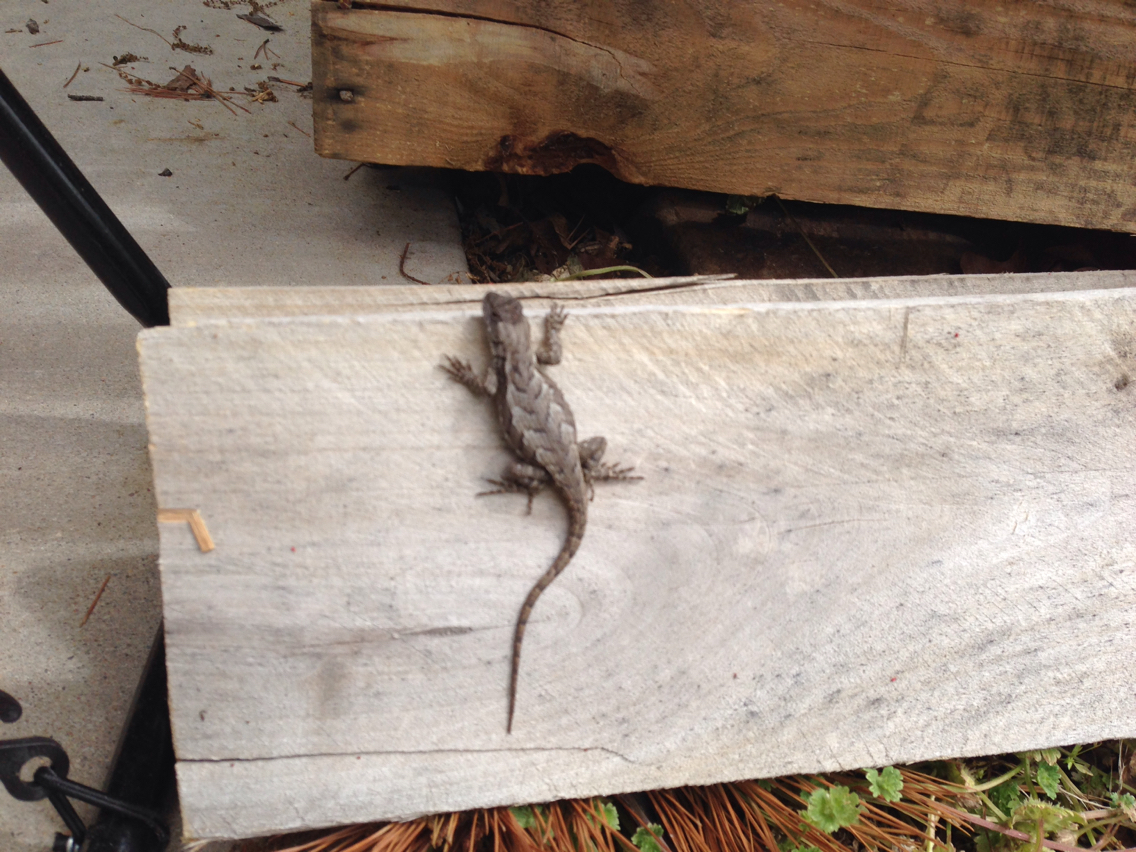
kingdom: Animalia
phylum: Chordata
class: Squamata
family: Phrynosomatidae
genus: Sceloporus
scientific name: Sceloporus consobrinus
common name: Southern prairie lizard
